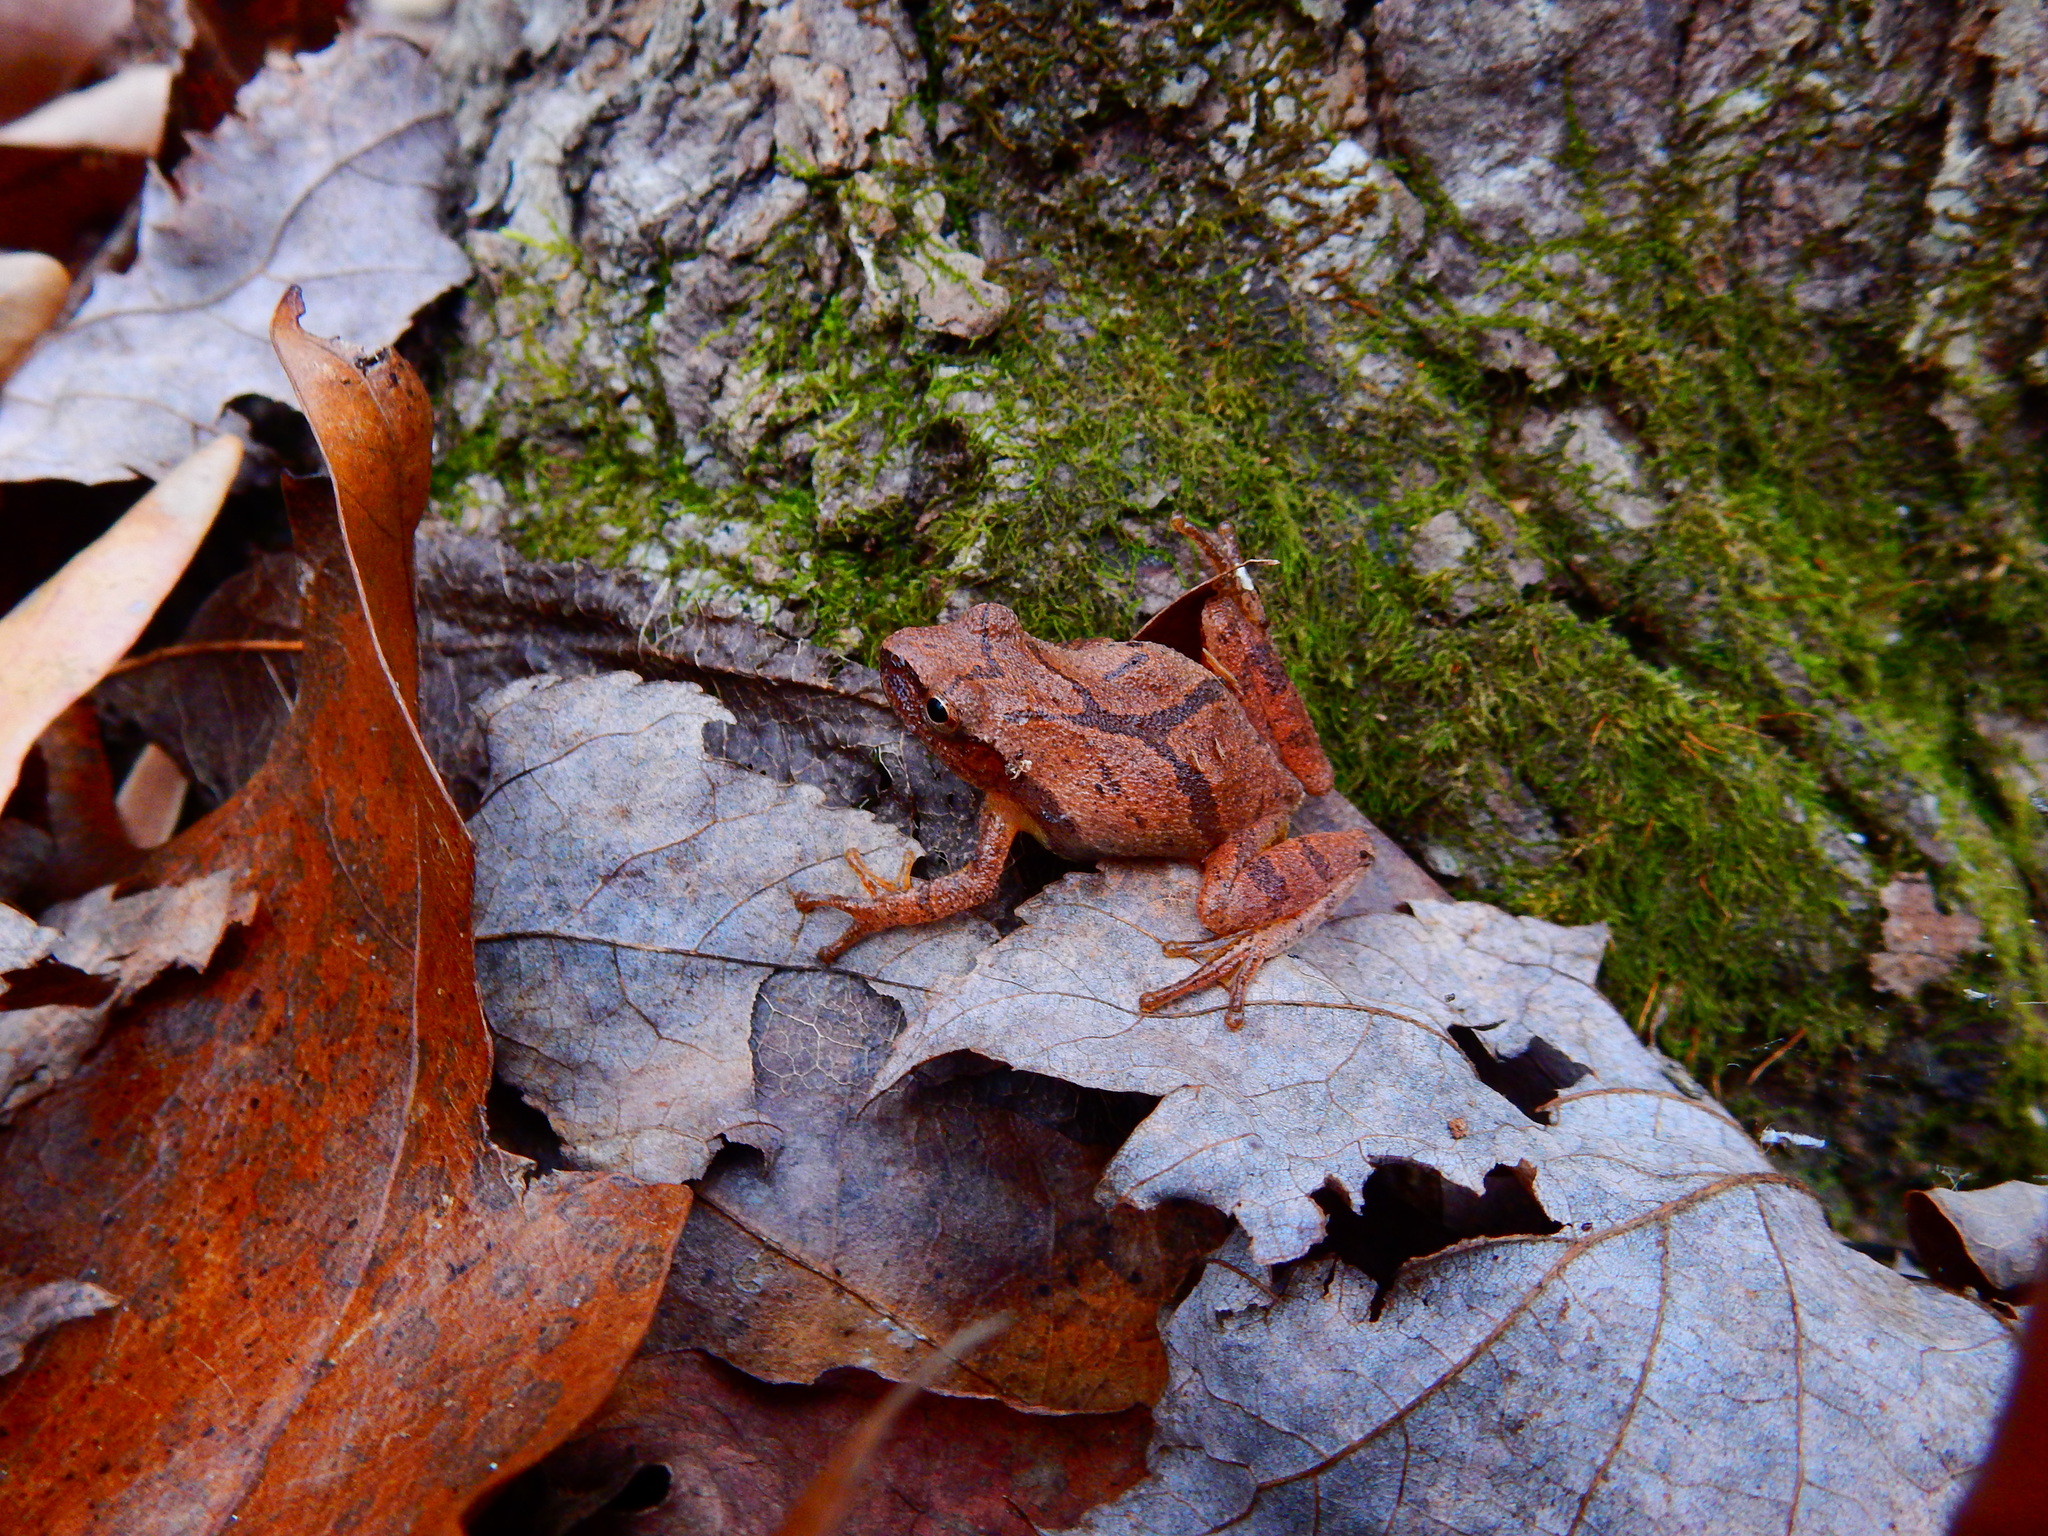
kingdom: Animalia
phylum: Chordata
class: Amphibia
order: Anura
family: Hylidae
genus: Pseudacris
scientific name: Pseudacris crucifer
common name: Spring peeper
